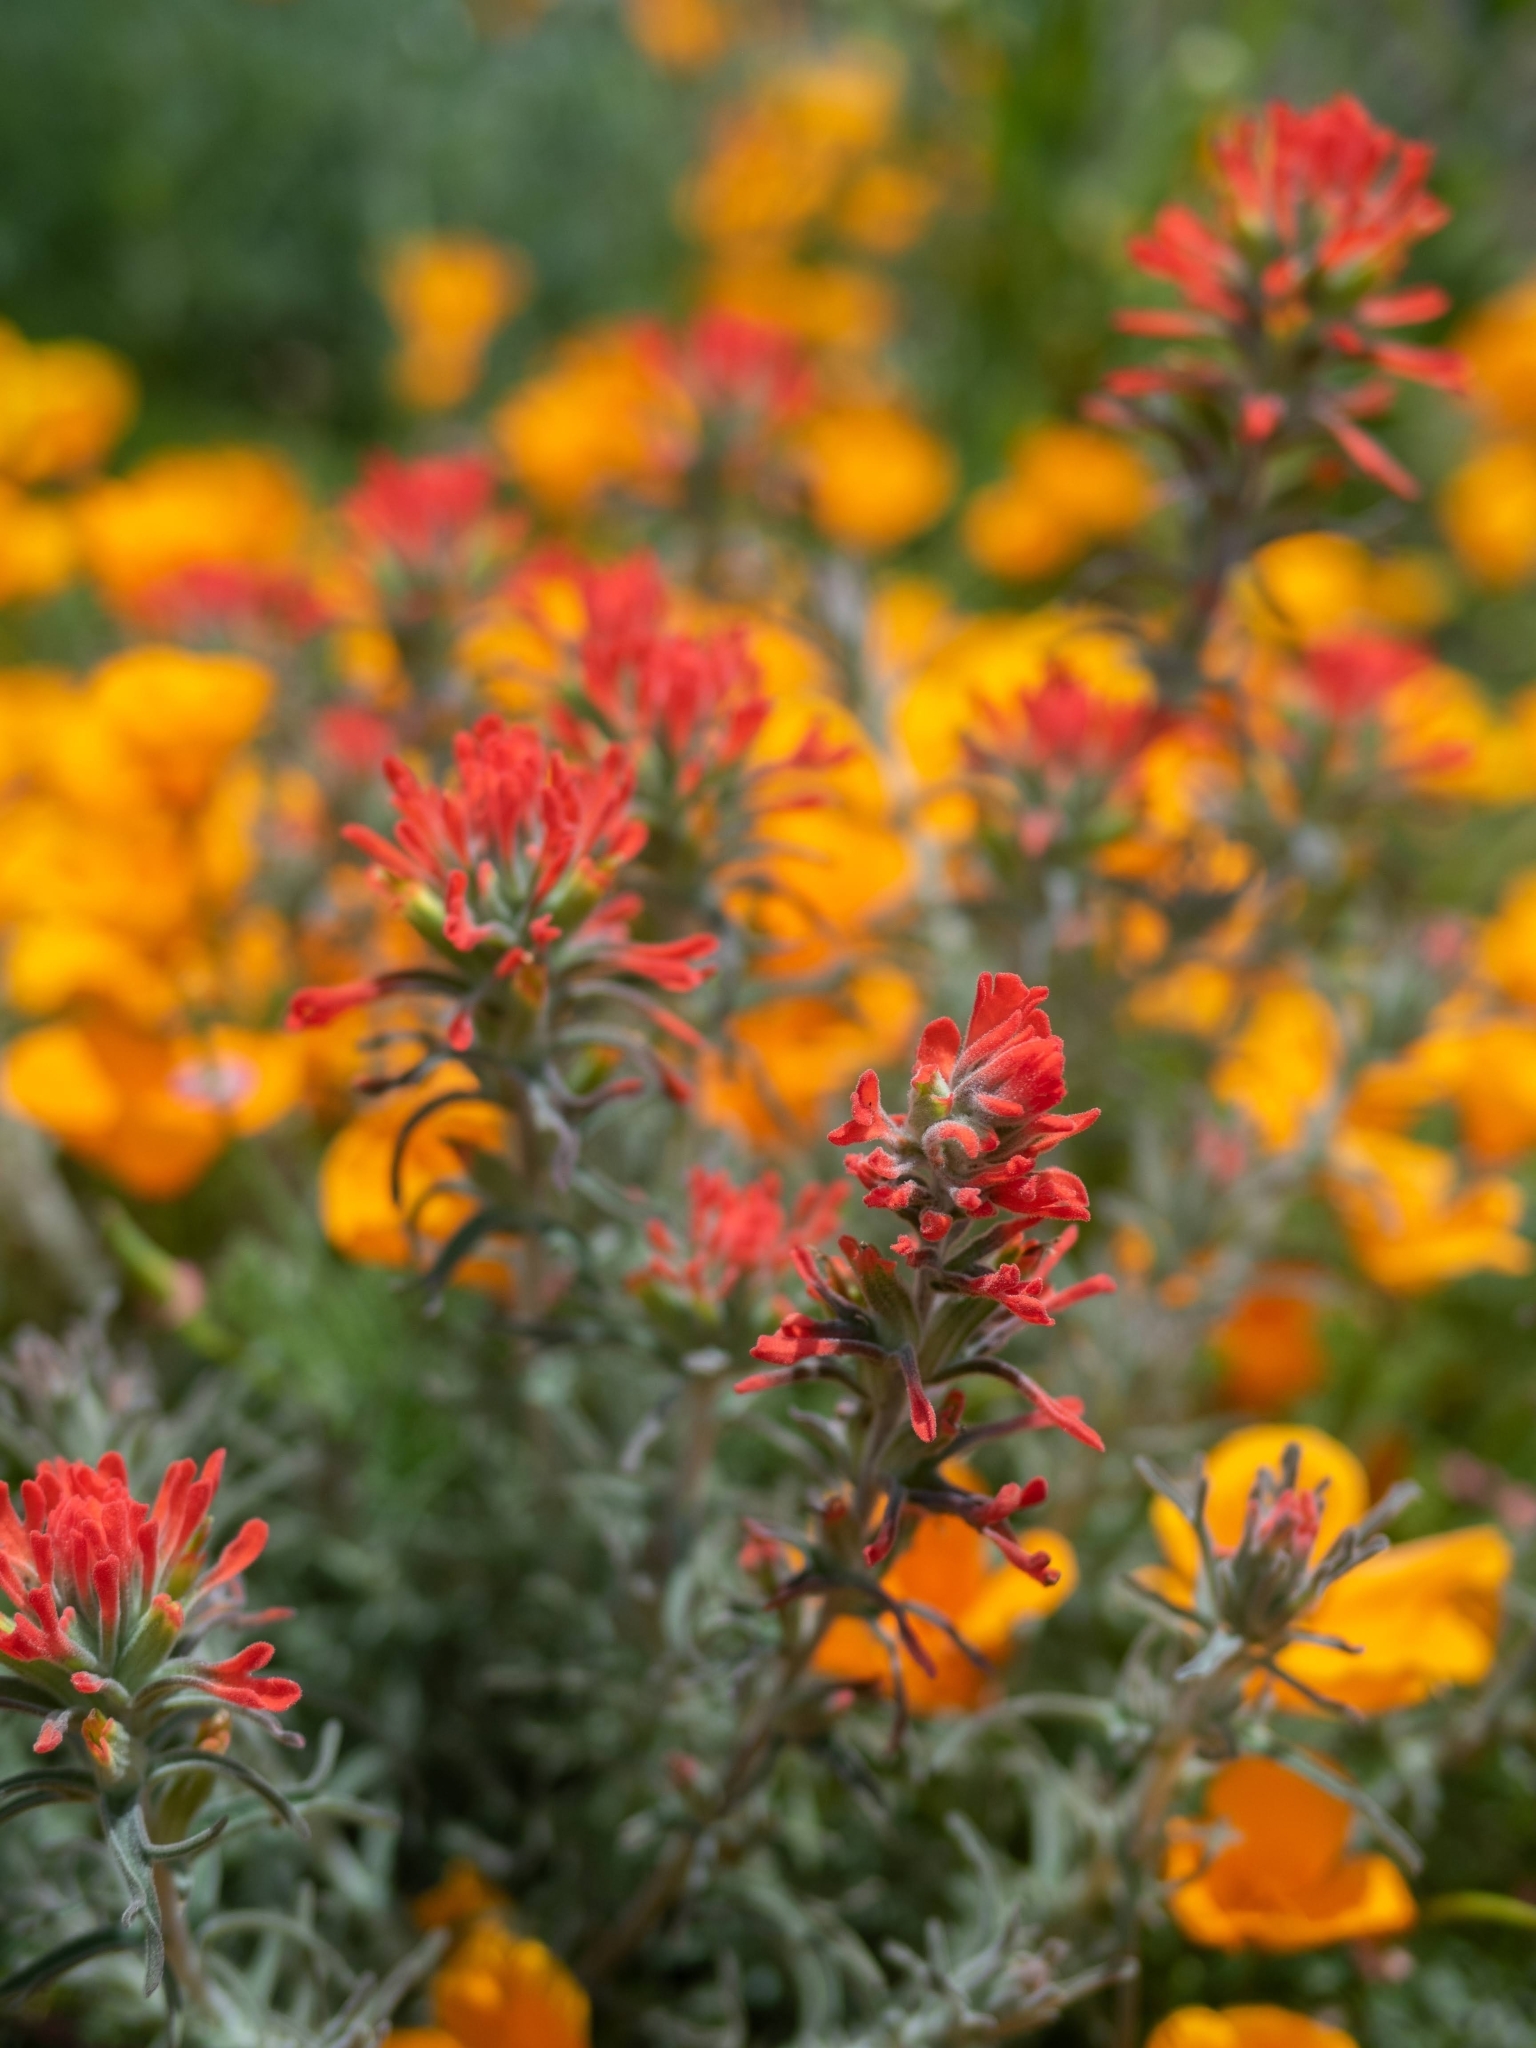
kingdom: Plantae
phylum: Tracheophyta
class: Magnoliopsida
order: Lamiales
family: Orobanchaceae
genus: Castilleja
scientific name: Castilleja foliolosa
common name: Woolly indian paintbrush
